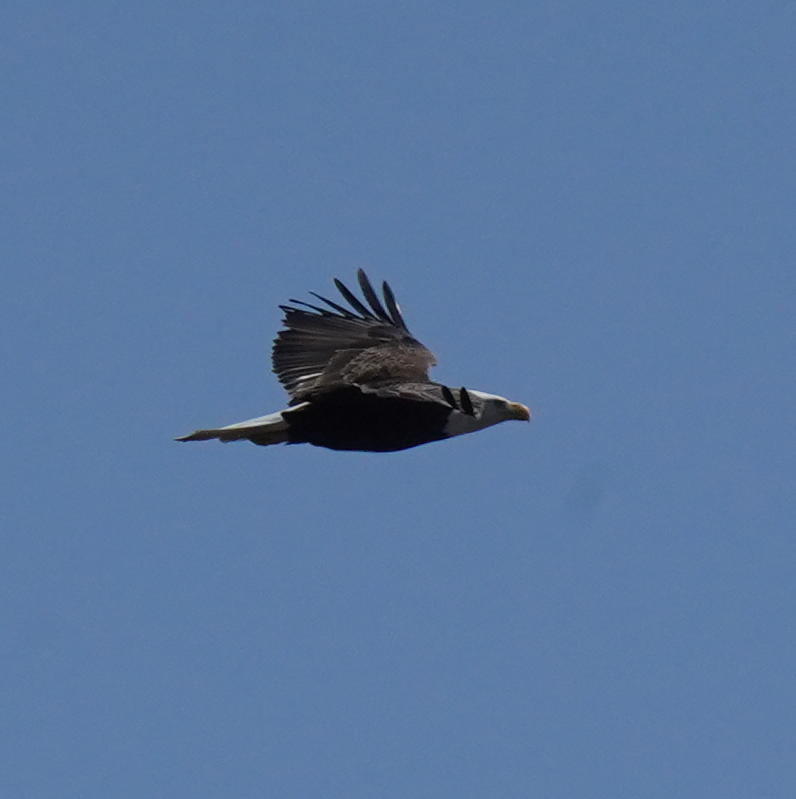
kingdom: Animalia
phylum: Chordata
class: Aves
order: Accipitriformes
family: Accipitridae
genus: Haliaeetus
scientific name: Haliaeetus leucocephalus
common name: Bald eagle
